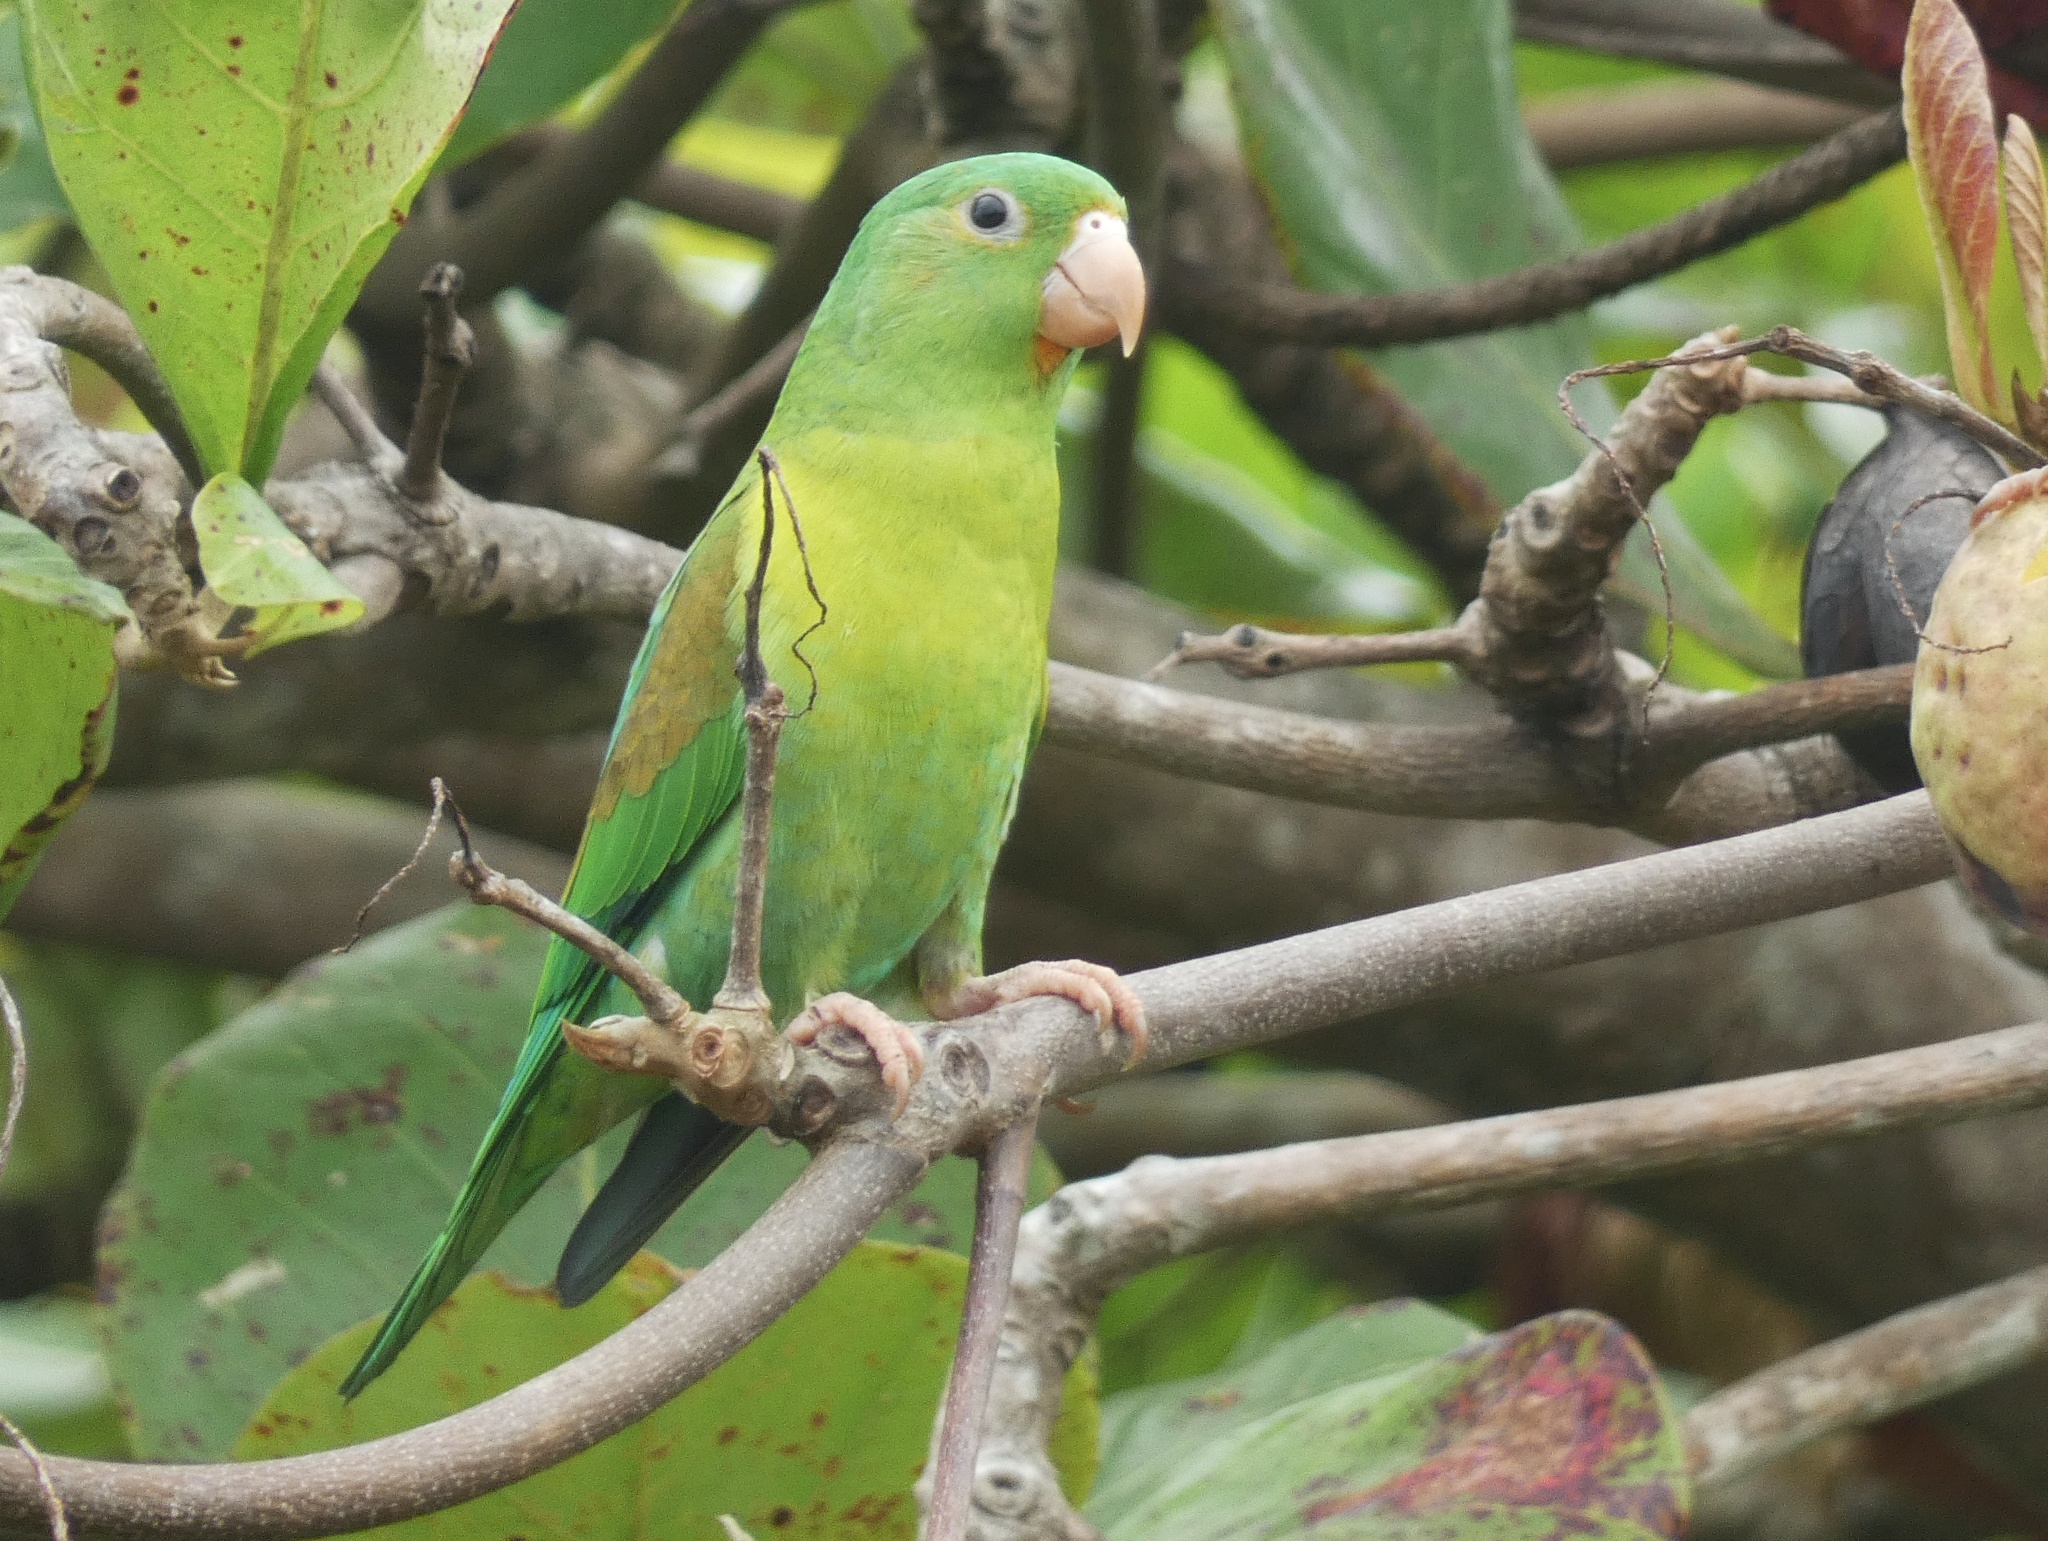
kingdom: Animalia
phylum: Chordata
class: Aves
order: Psittaciformes
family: Psittacidae
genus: Brotogeris
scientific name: Brotogeris jugularis
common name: Orange-chinned parakeet
